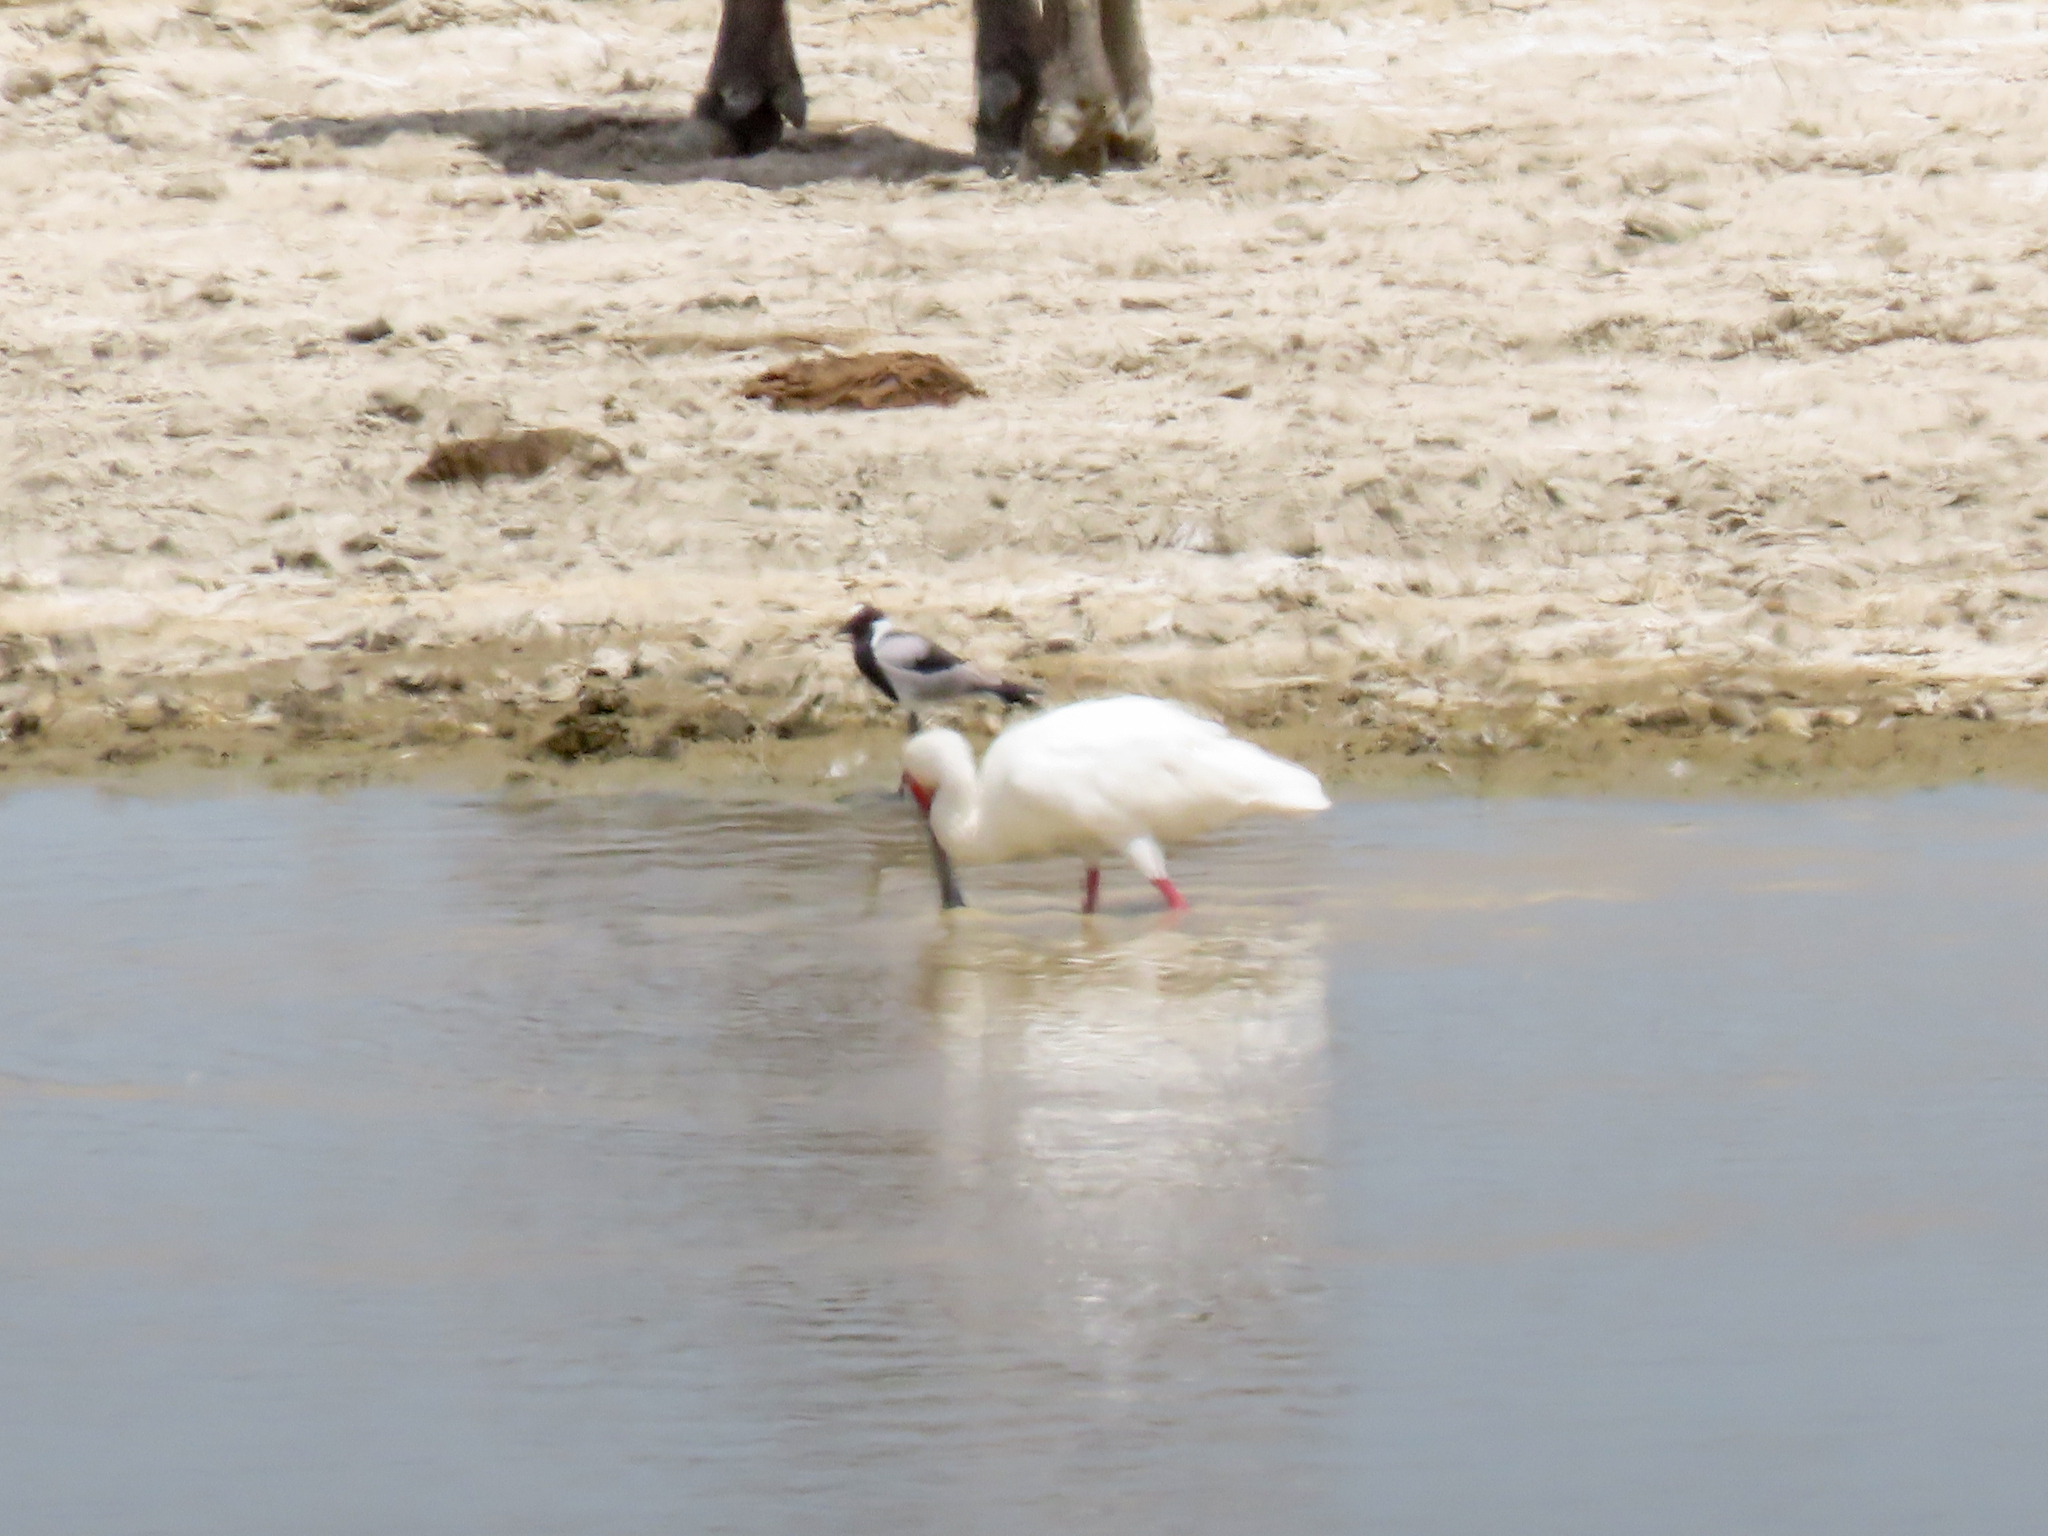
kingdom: Animalia
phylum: Chordata
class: Aves
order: Pelecaniformes
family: Threskiornithidae
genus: Platalea
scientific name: Platalea alba
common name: African spoonbill
